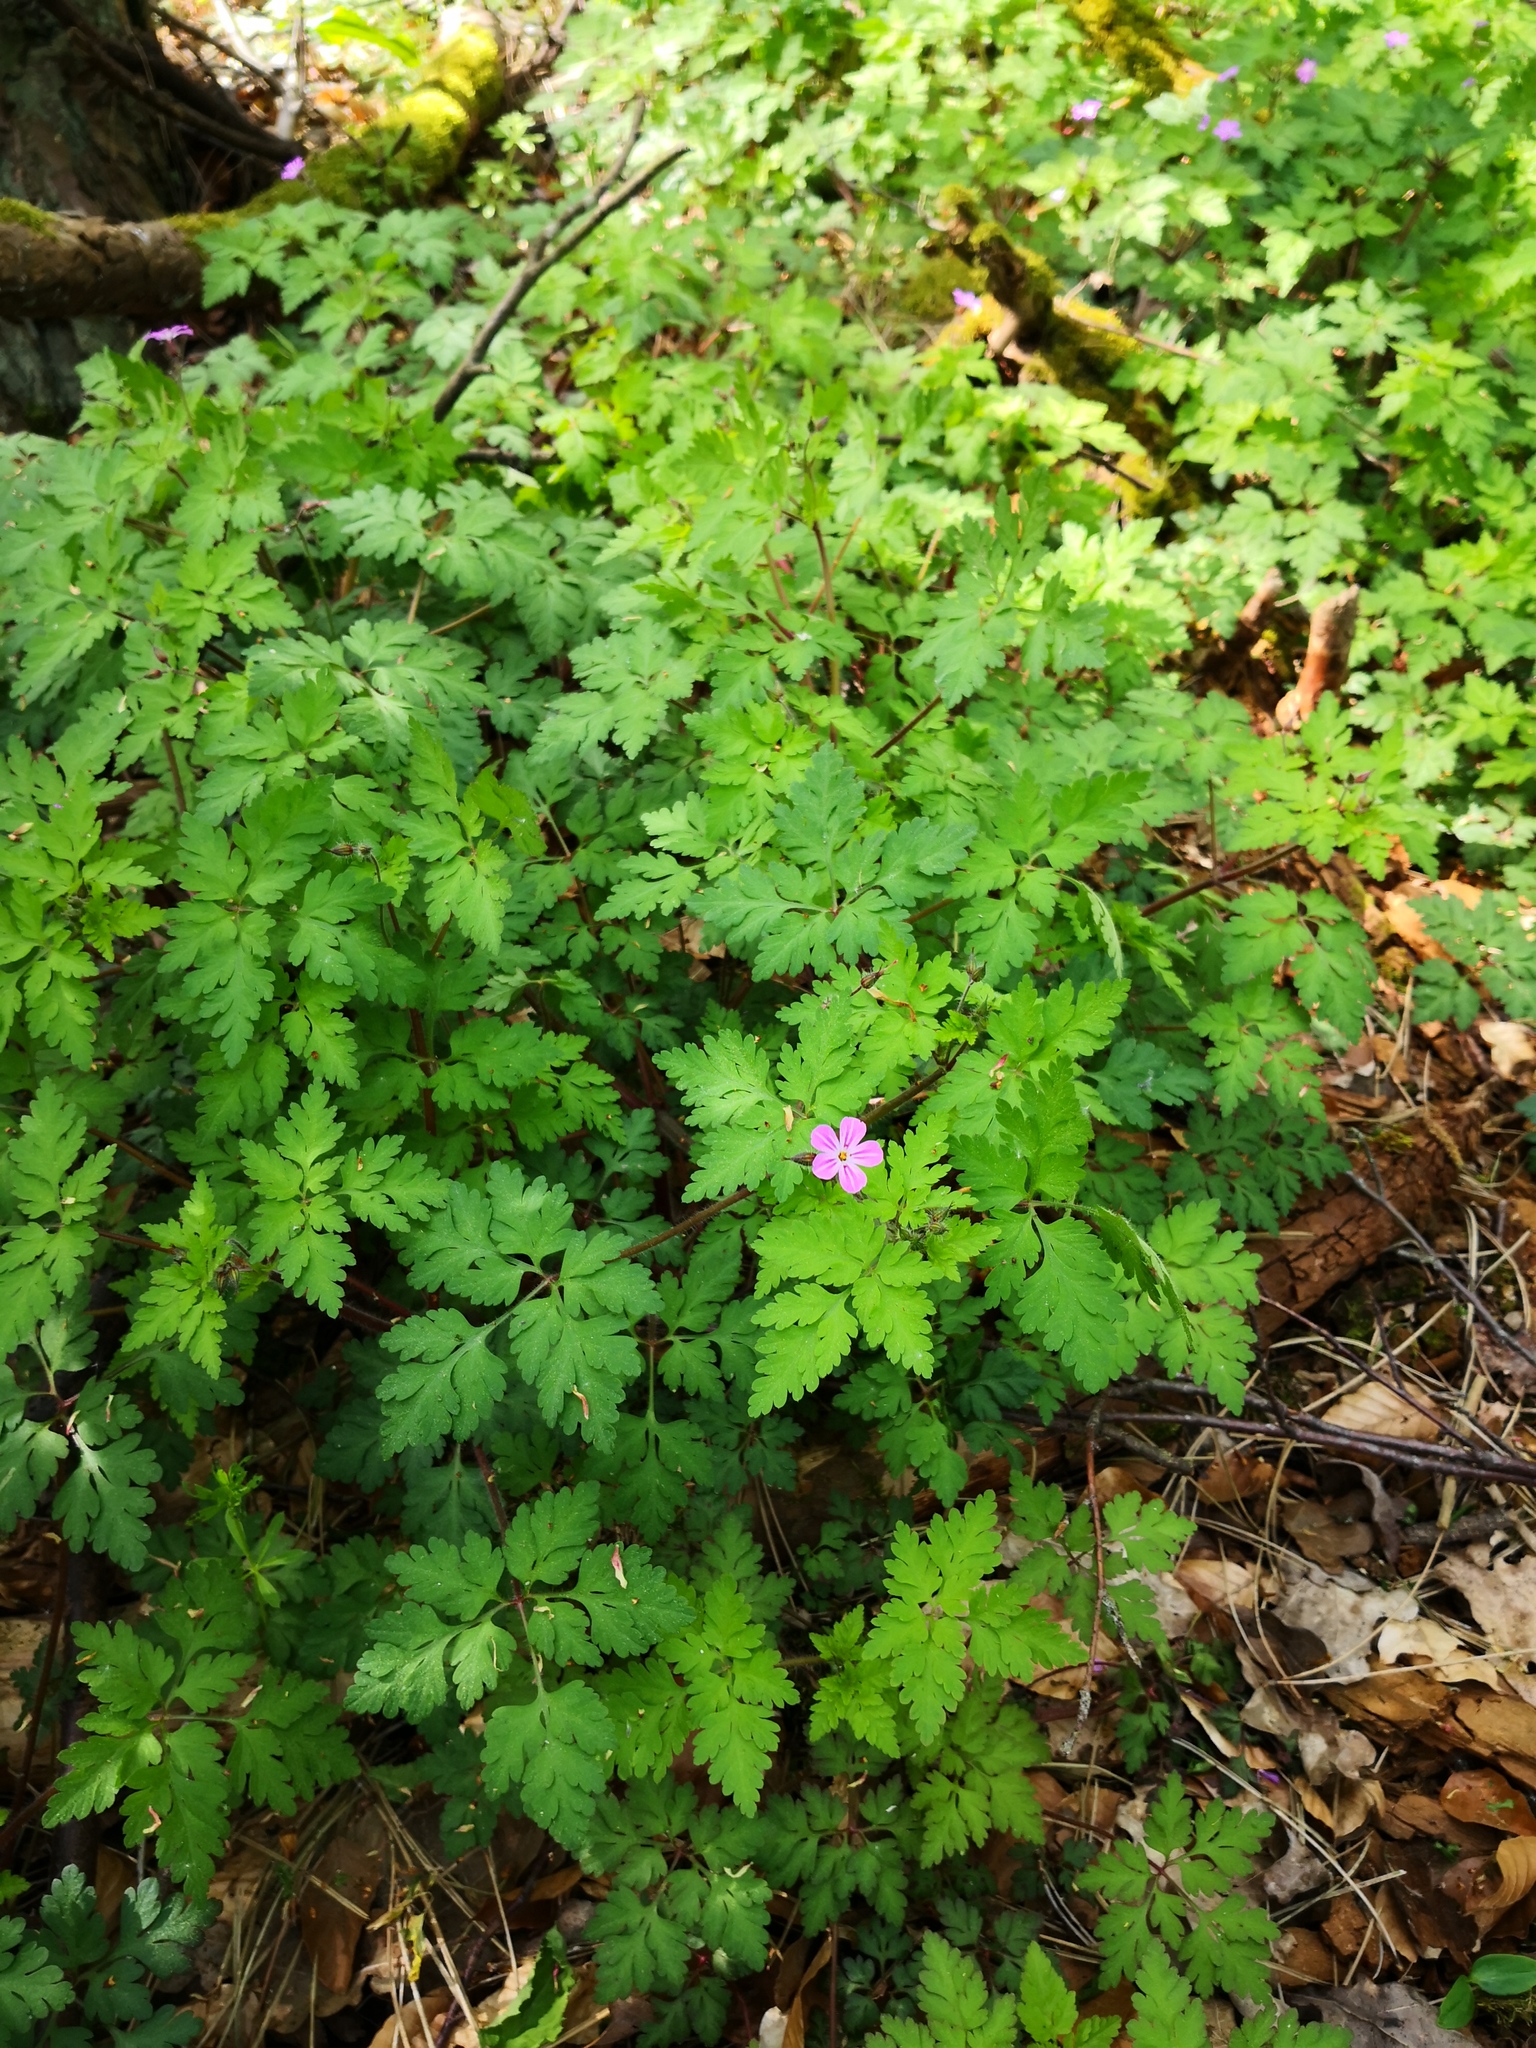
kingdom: Plantae
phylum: Tracheophyta
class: Magnoliopsida
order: Geraniales
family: Geraniaceae
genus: Geranium
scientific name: Geranium robertianum
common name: Herb-robert
